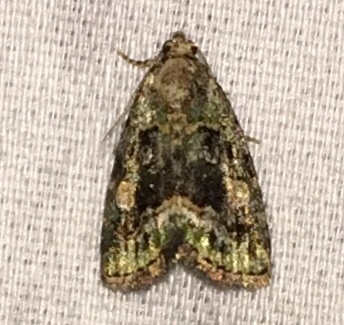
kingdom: Animalia
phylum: Arthropoda
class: Insecta
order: Lepidoptera
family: Noctuidae
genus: Lithacodia
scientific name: Lithacodia musta
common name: Small mossy glyph
